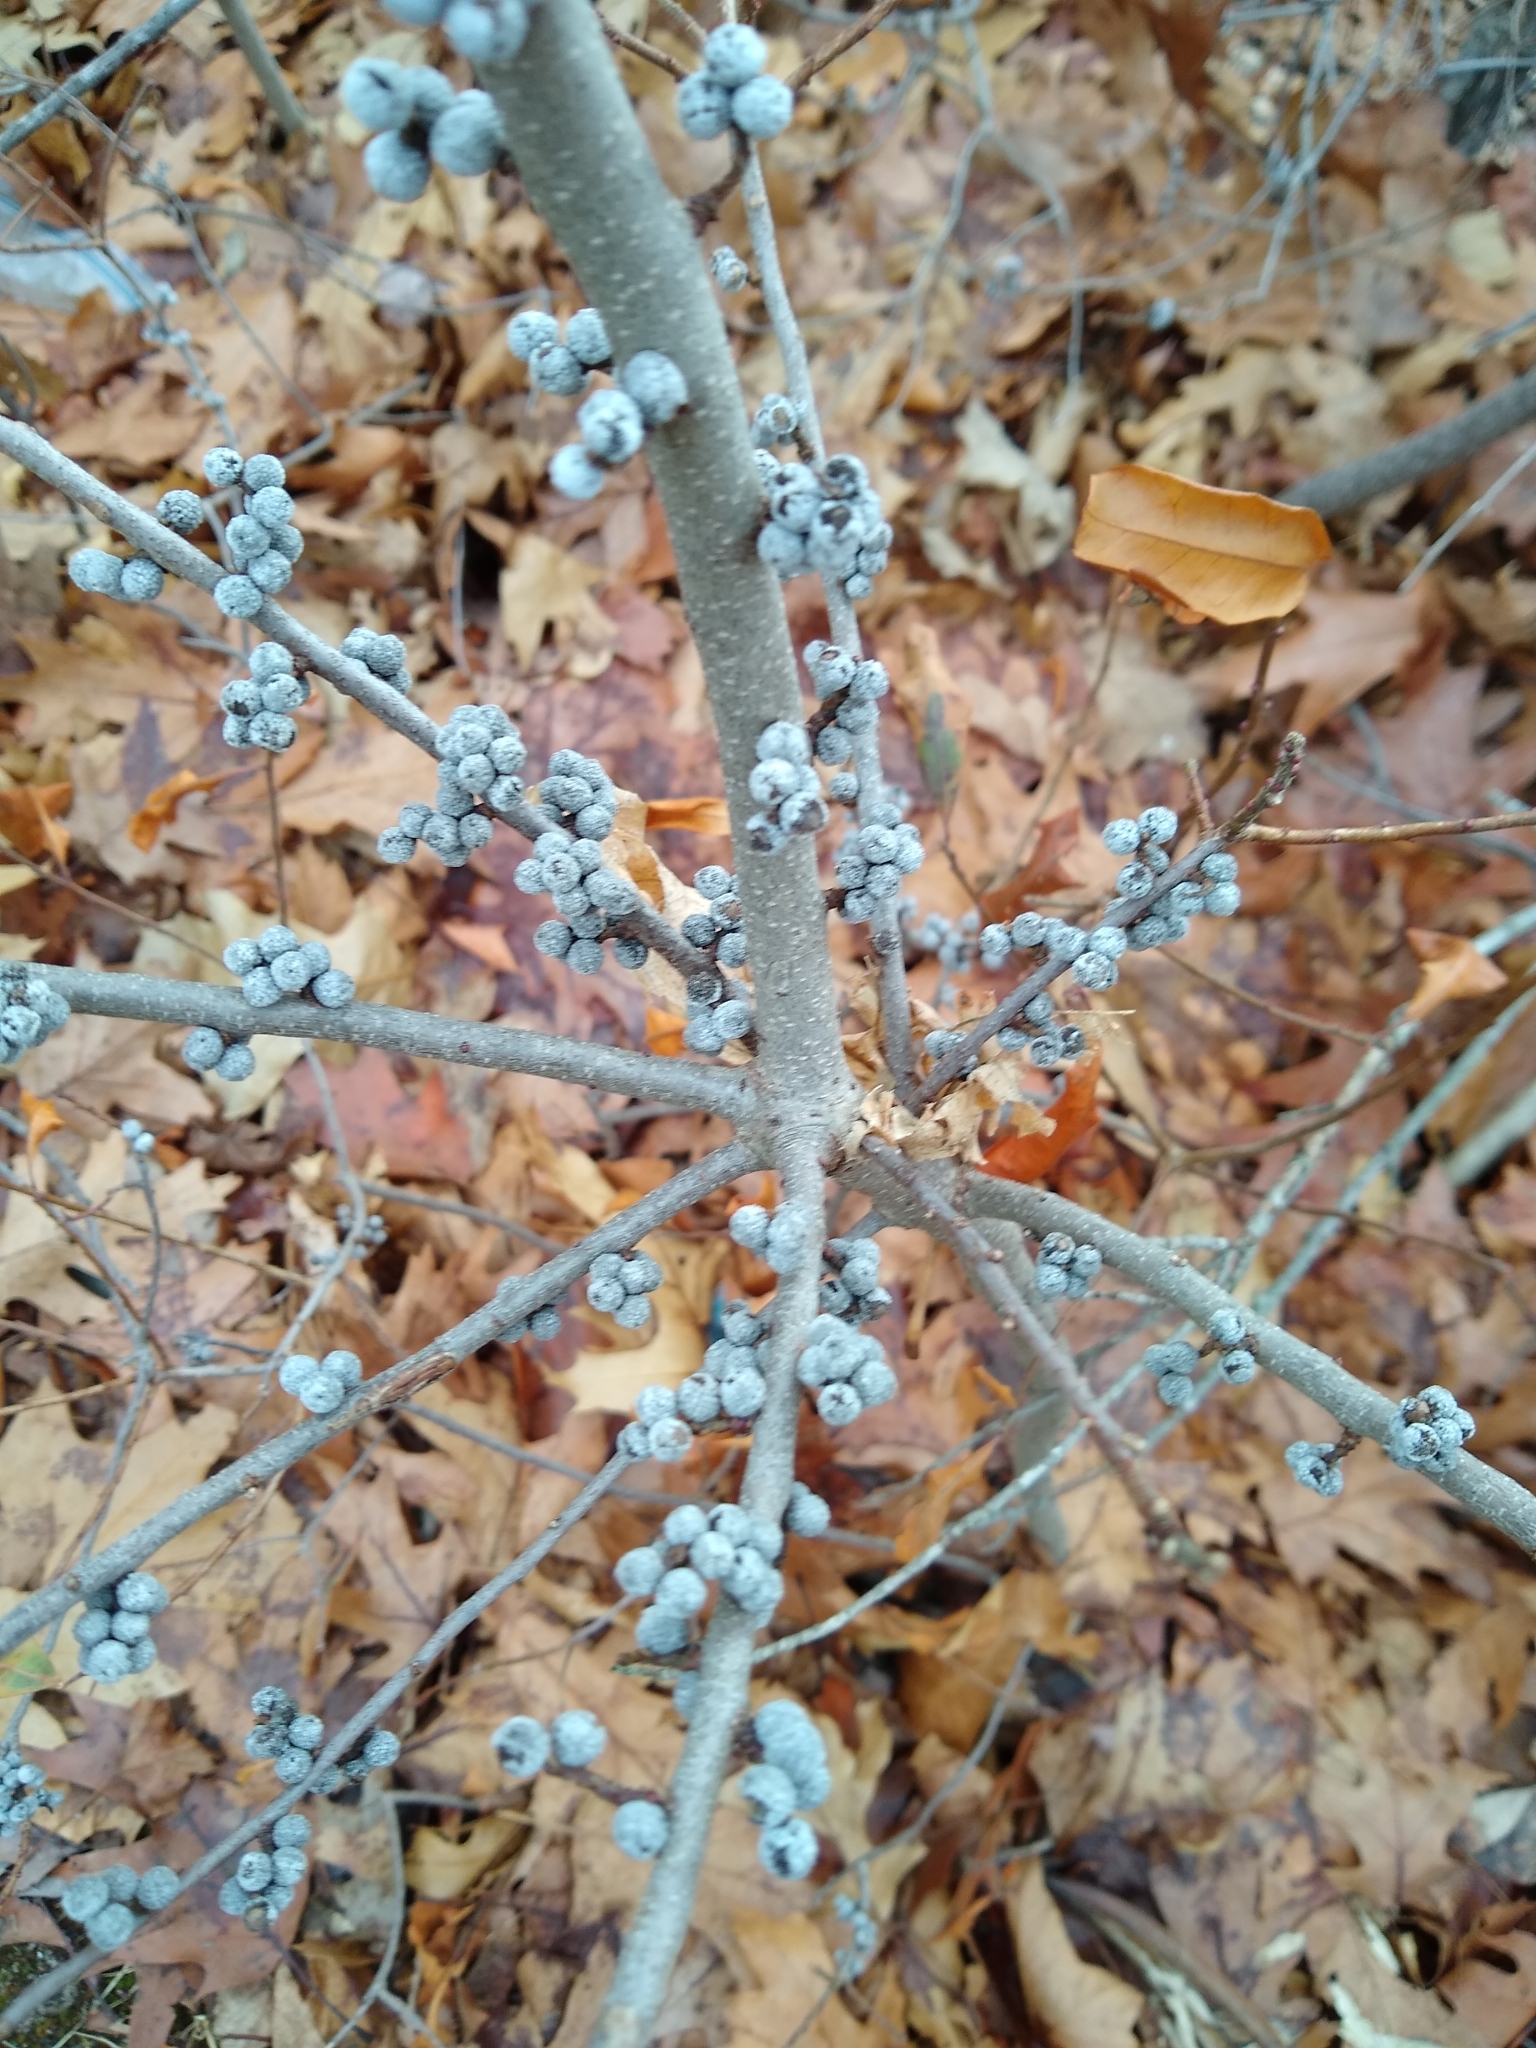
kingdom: Plantae
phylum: Tracheophyta
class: Magnoliopsida
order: Fagales
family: Myricaceae
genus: Morella
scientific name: Morella pensylvanica
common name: Northern bayberry
